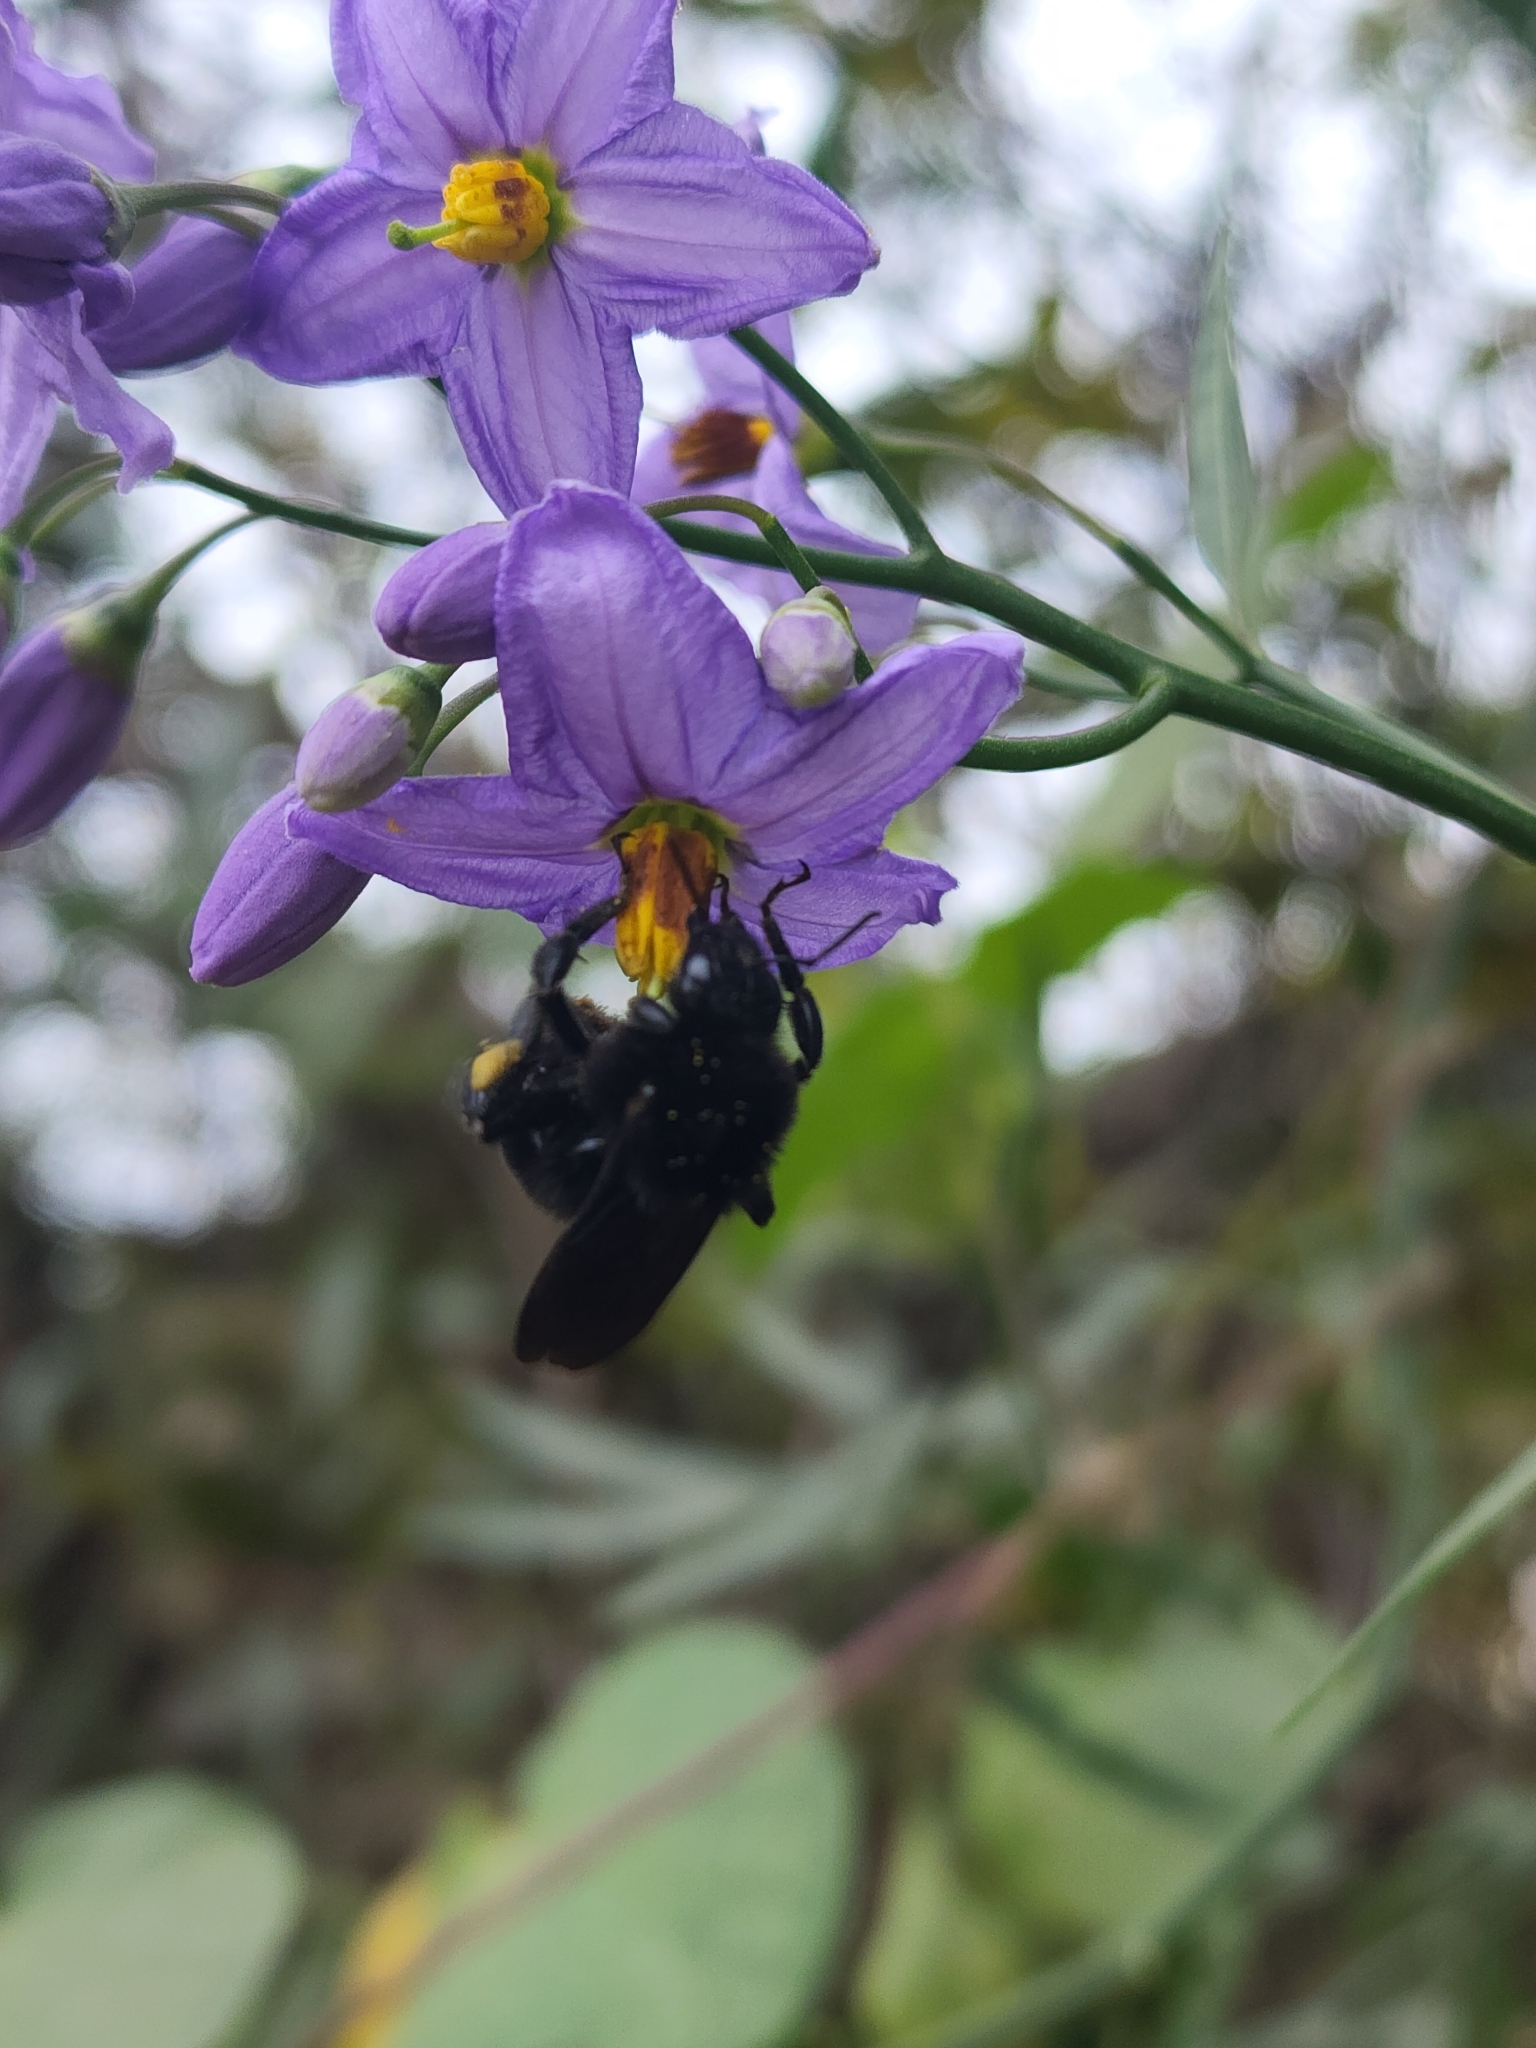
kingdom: Animalia
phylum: Arthropoda
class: Insecta
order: Hymenoptera
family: Apidae
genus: Bombus
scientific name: Bombus pauloensis
